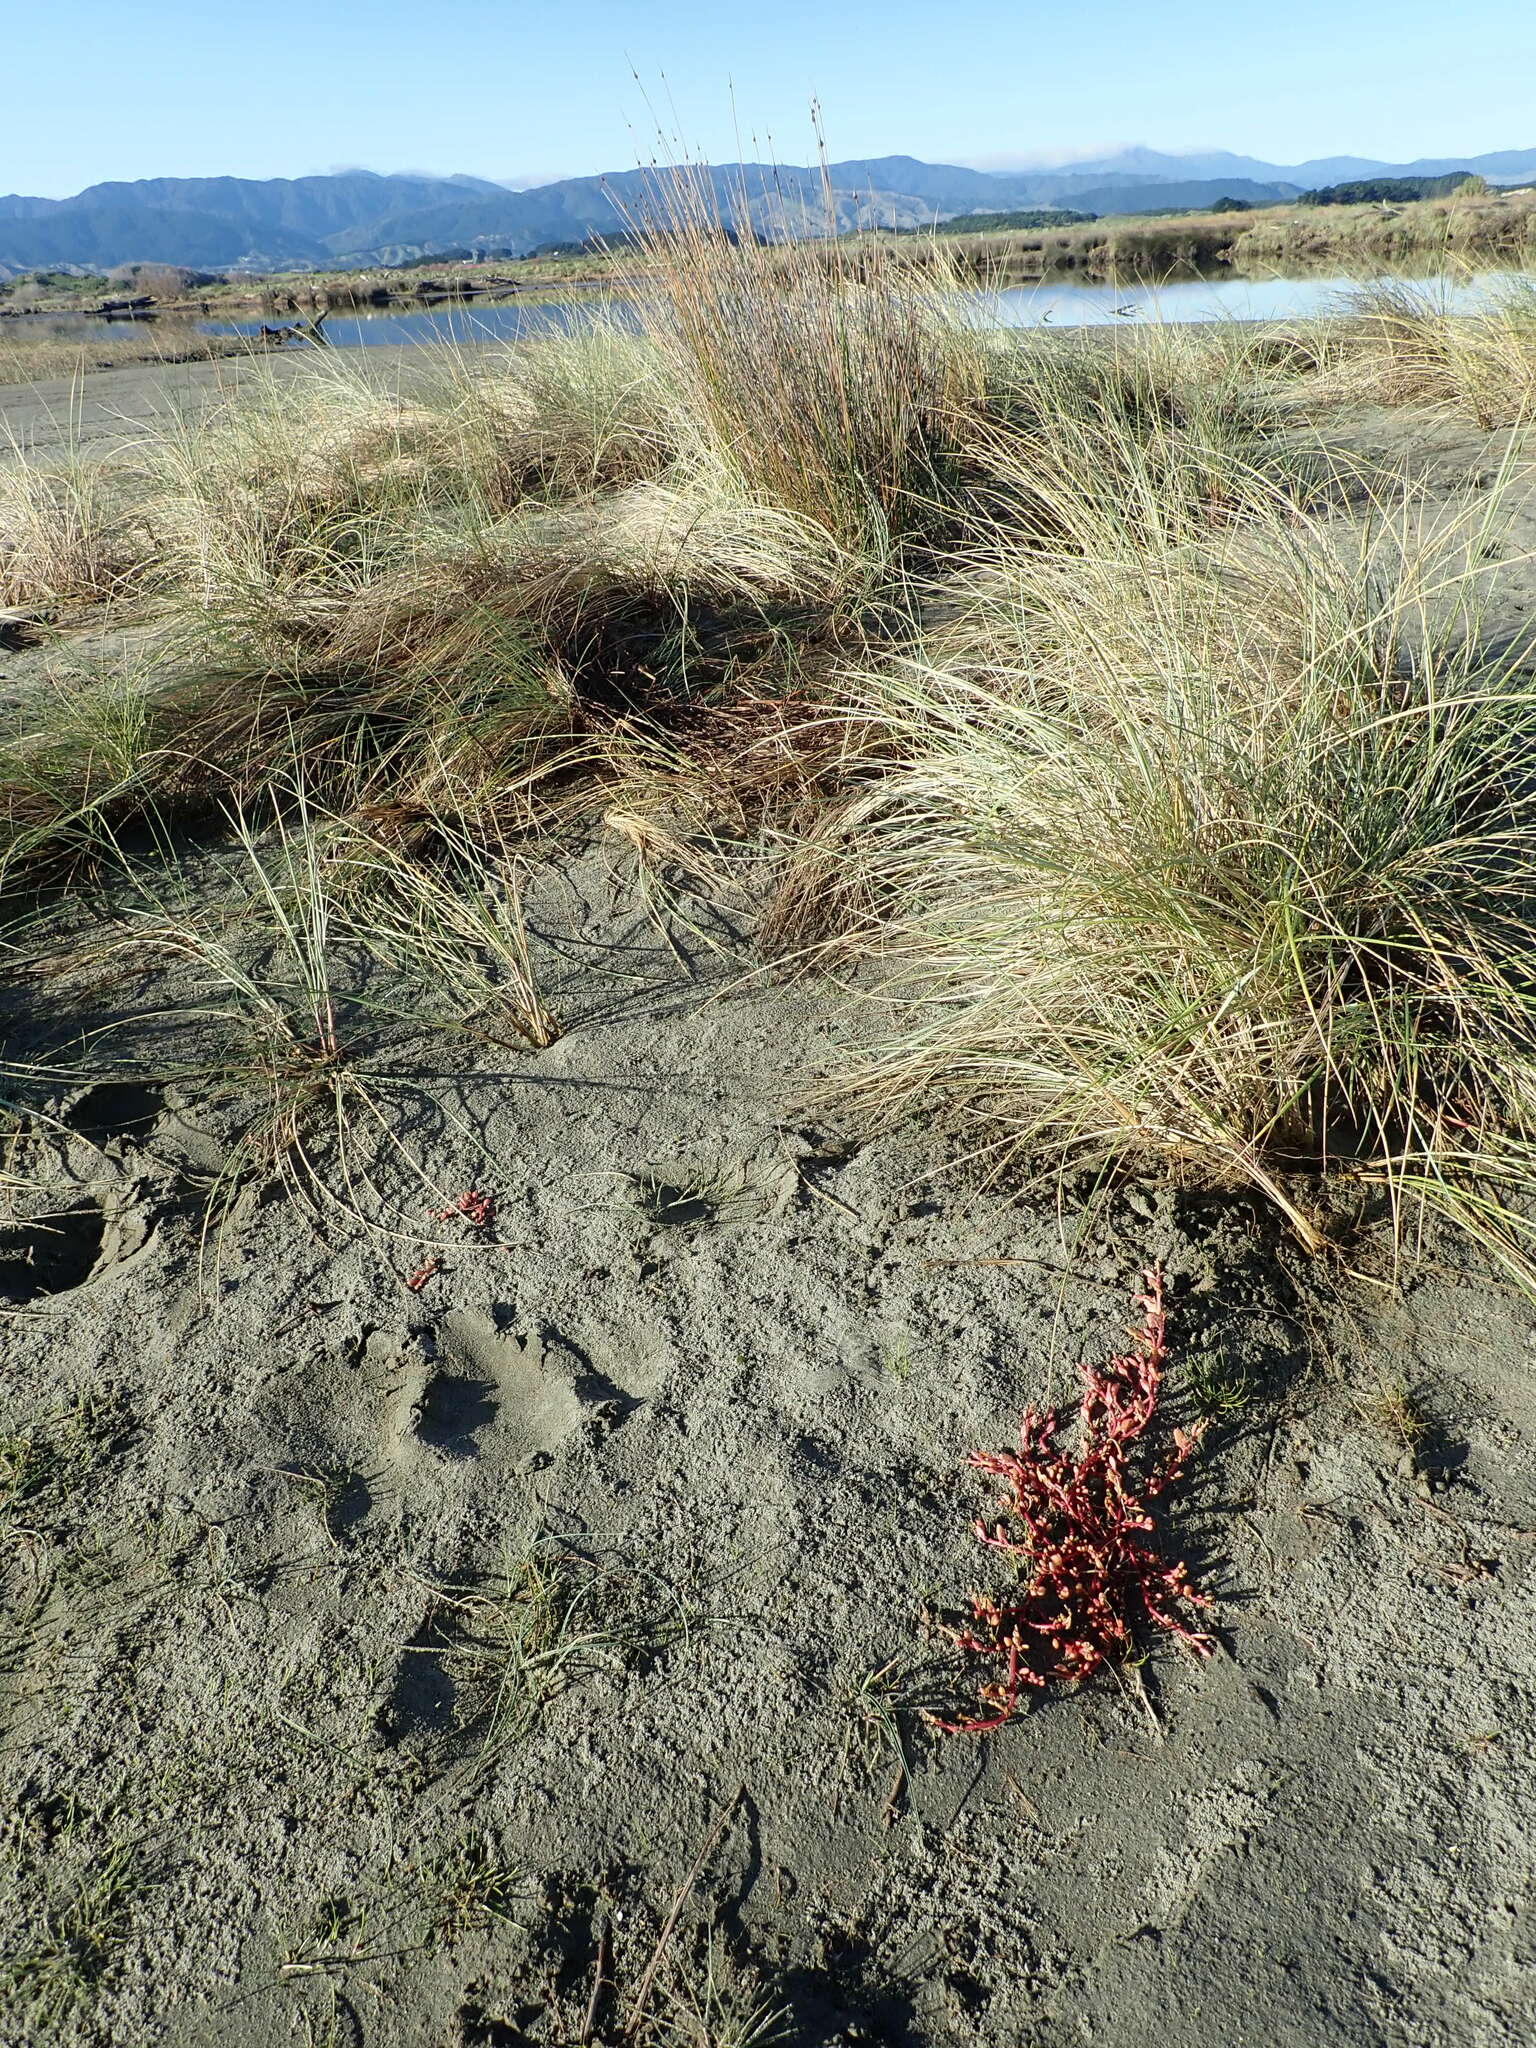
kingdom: Plantae
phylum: Tracheophyta
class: Magnoliopsida
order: Caryophyllales
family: Amaranthaceae
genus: Oxybasis
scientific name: Oxybasis ambigua
